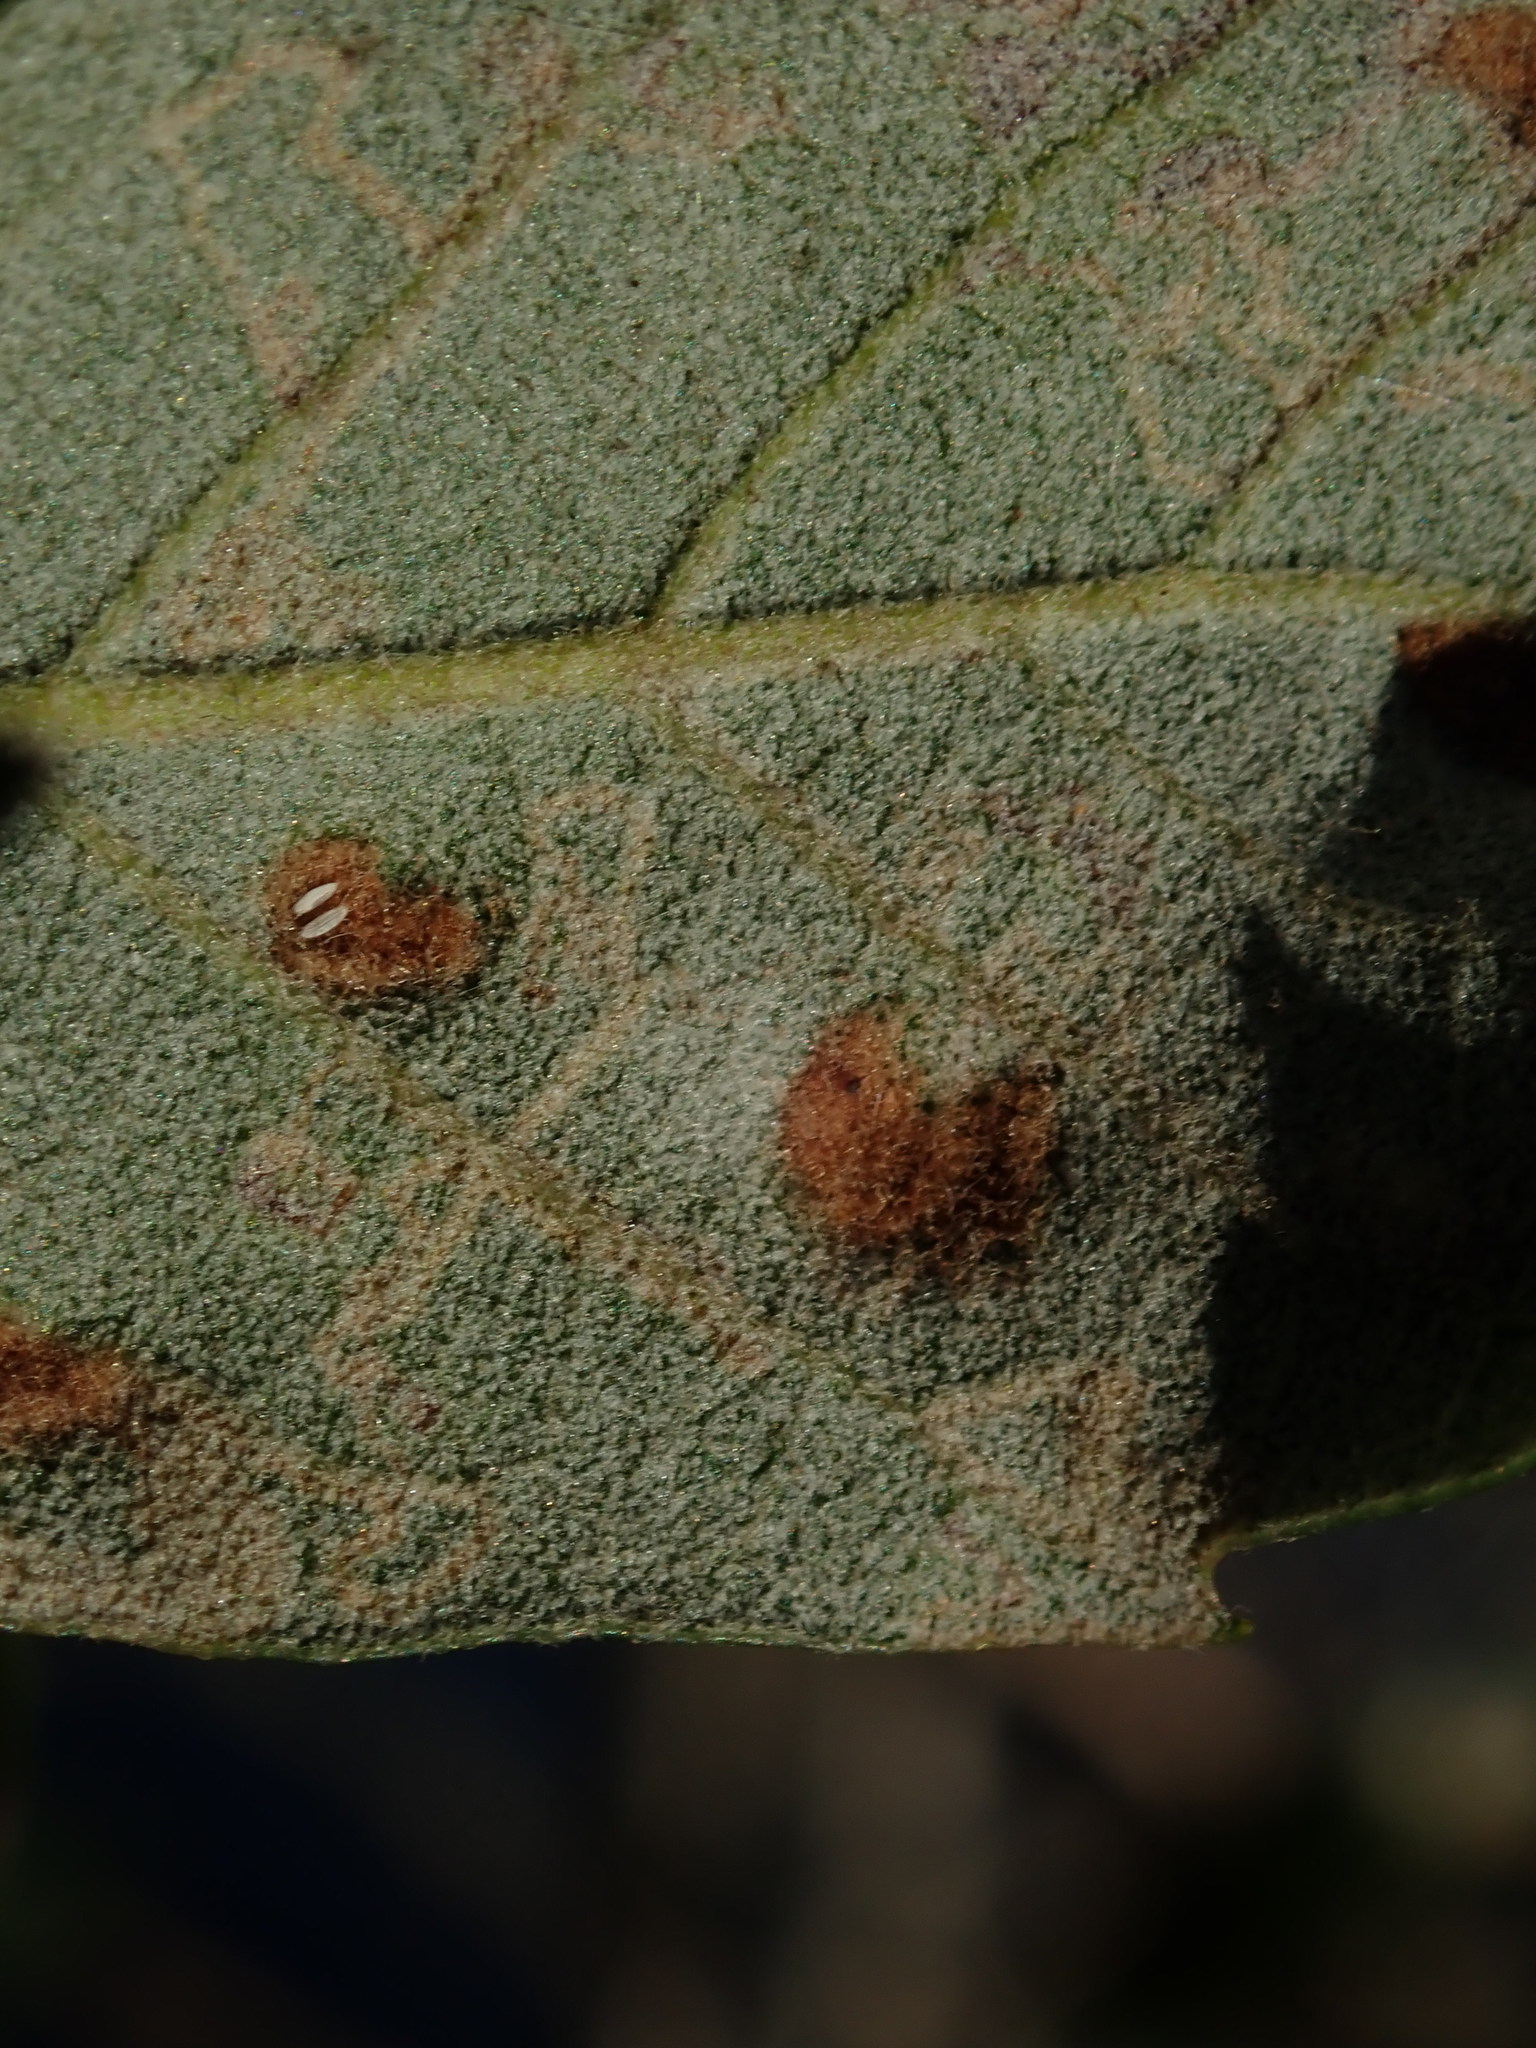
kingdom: Animalia
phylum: Arthropoda
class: Arachnida
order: Trombidiformes
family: Eriophyidae
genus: Aceria
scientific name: Aceria ilicis
